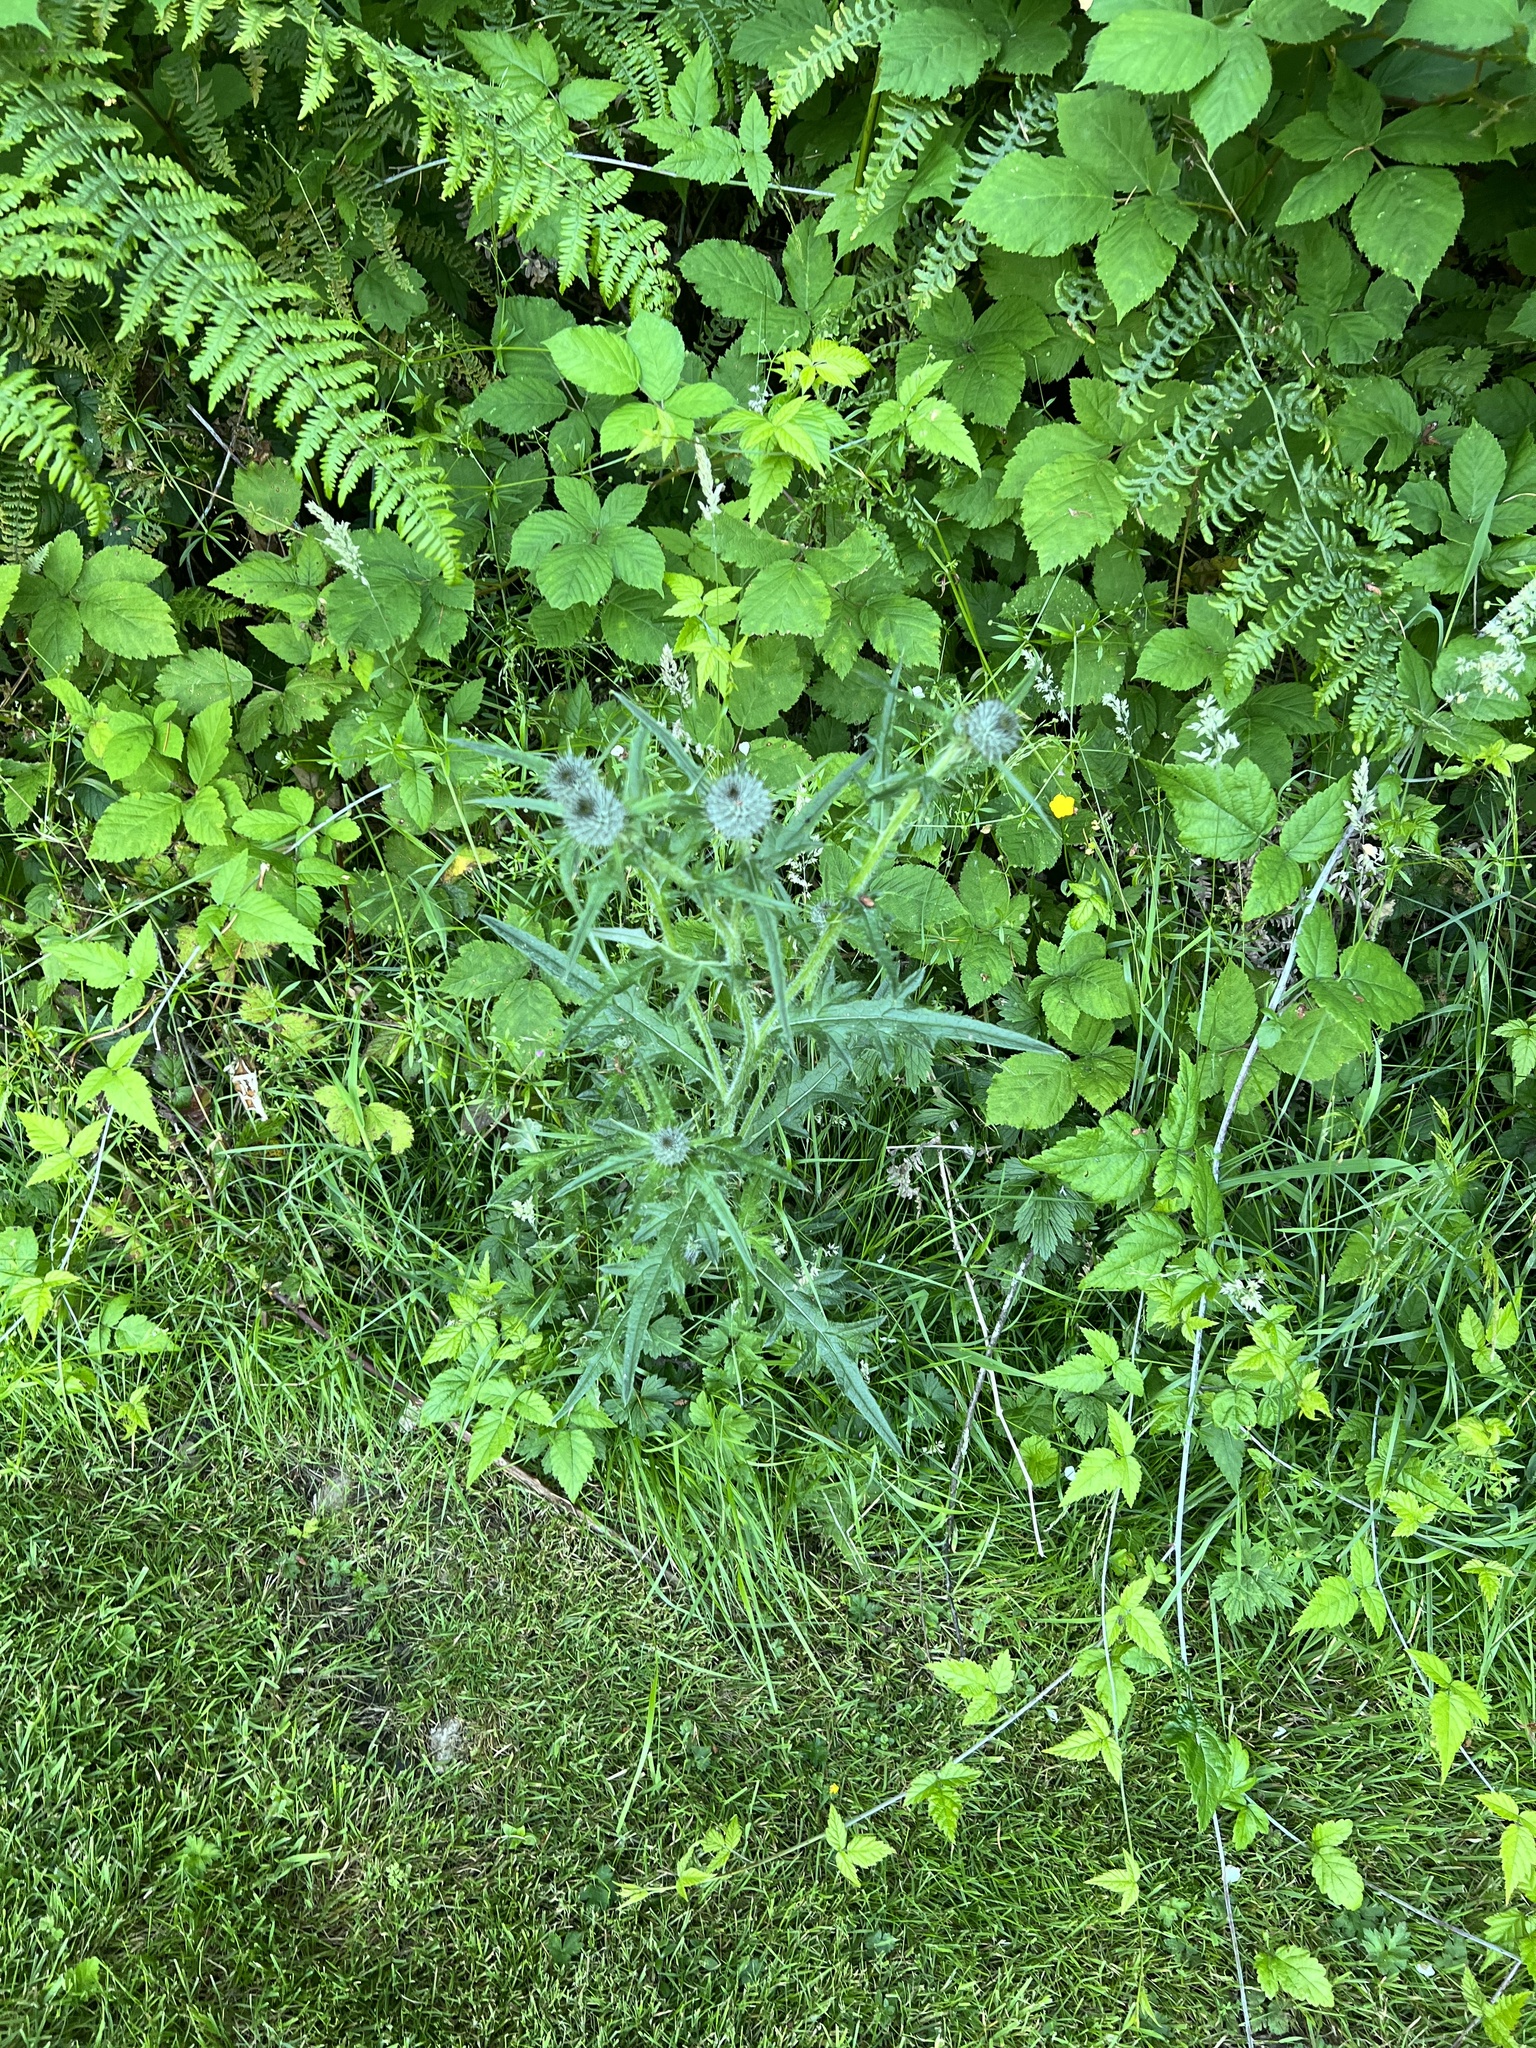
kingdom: Plantae
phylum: Tracheophyta
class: Magnoliopsida
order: Asterales
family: Asteraceae
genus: Cirsium
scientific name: Cirsium vulgare
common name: Bull thistle
